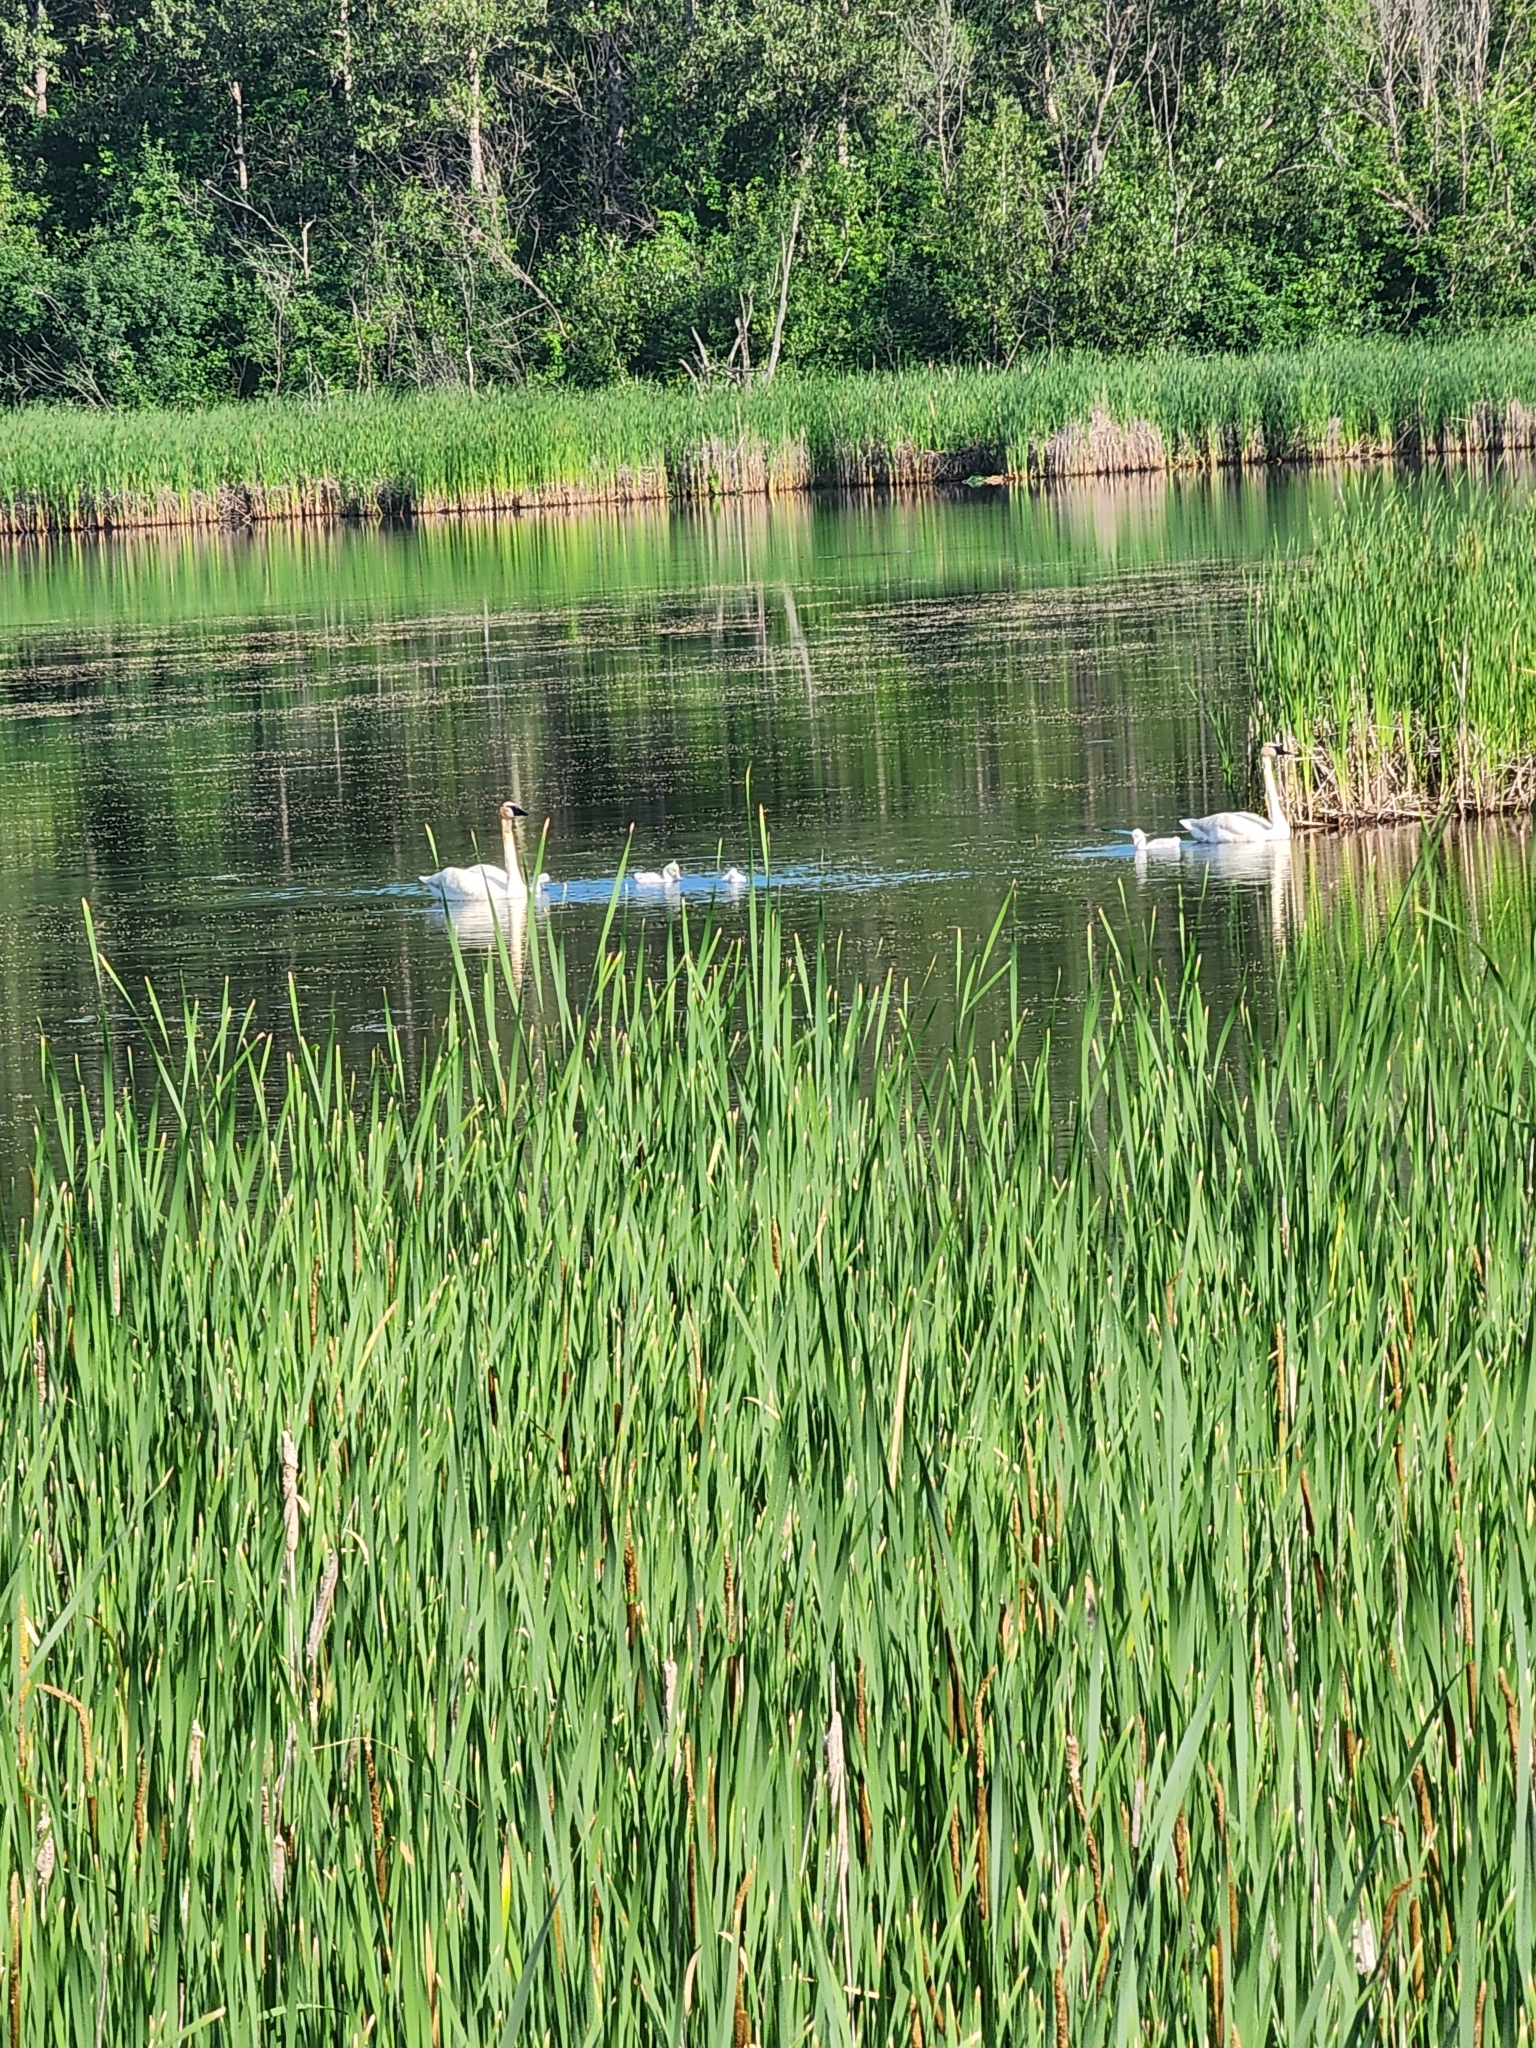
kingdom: Animalia
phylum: Chordata
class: Aves
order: Anseriformes
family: Anatidae
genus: Cygnus
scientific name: Cygnus buccinator
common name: Trumpeter swan
